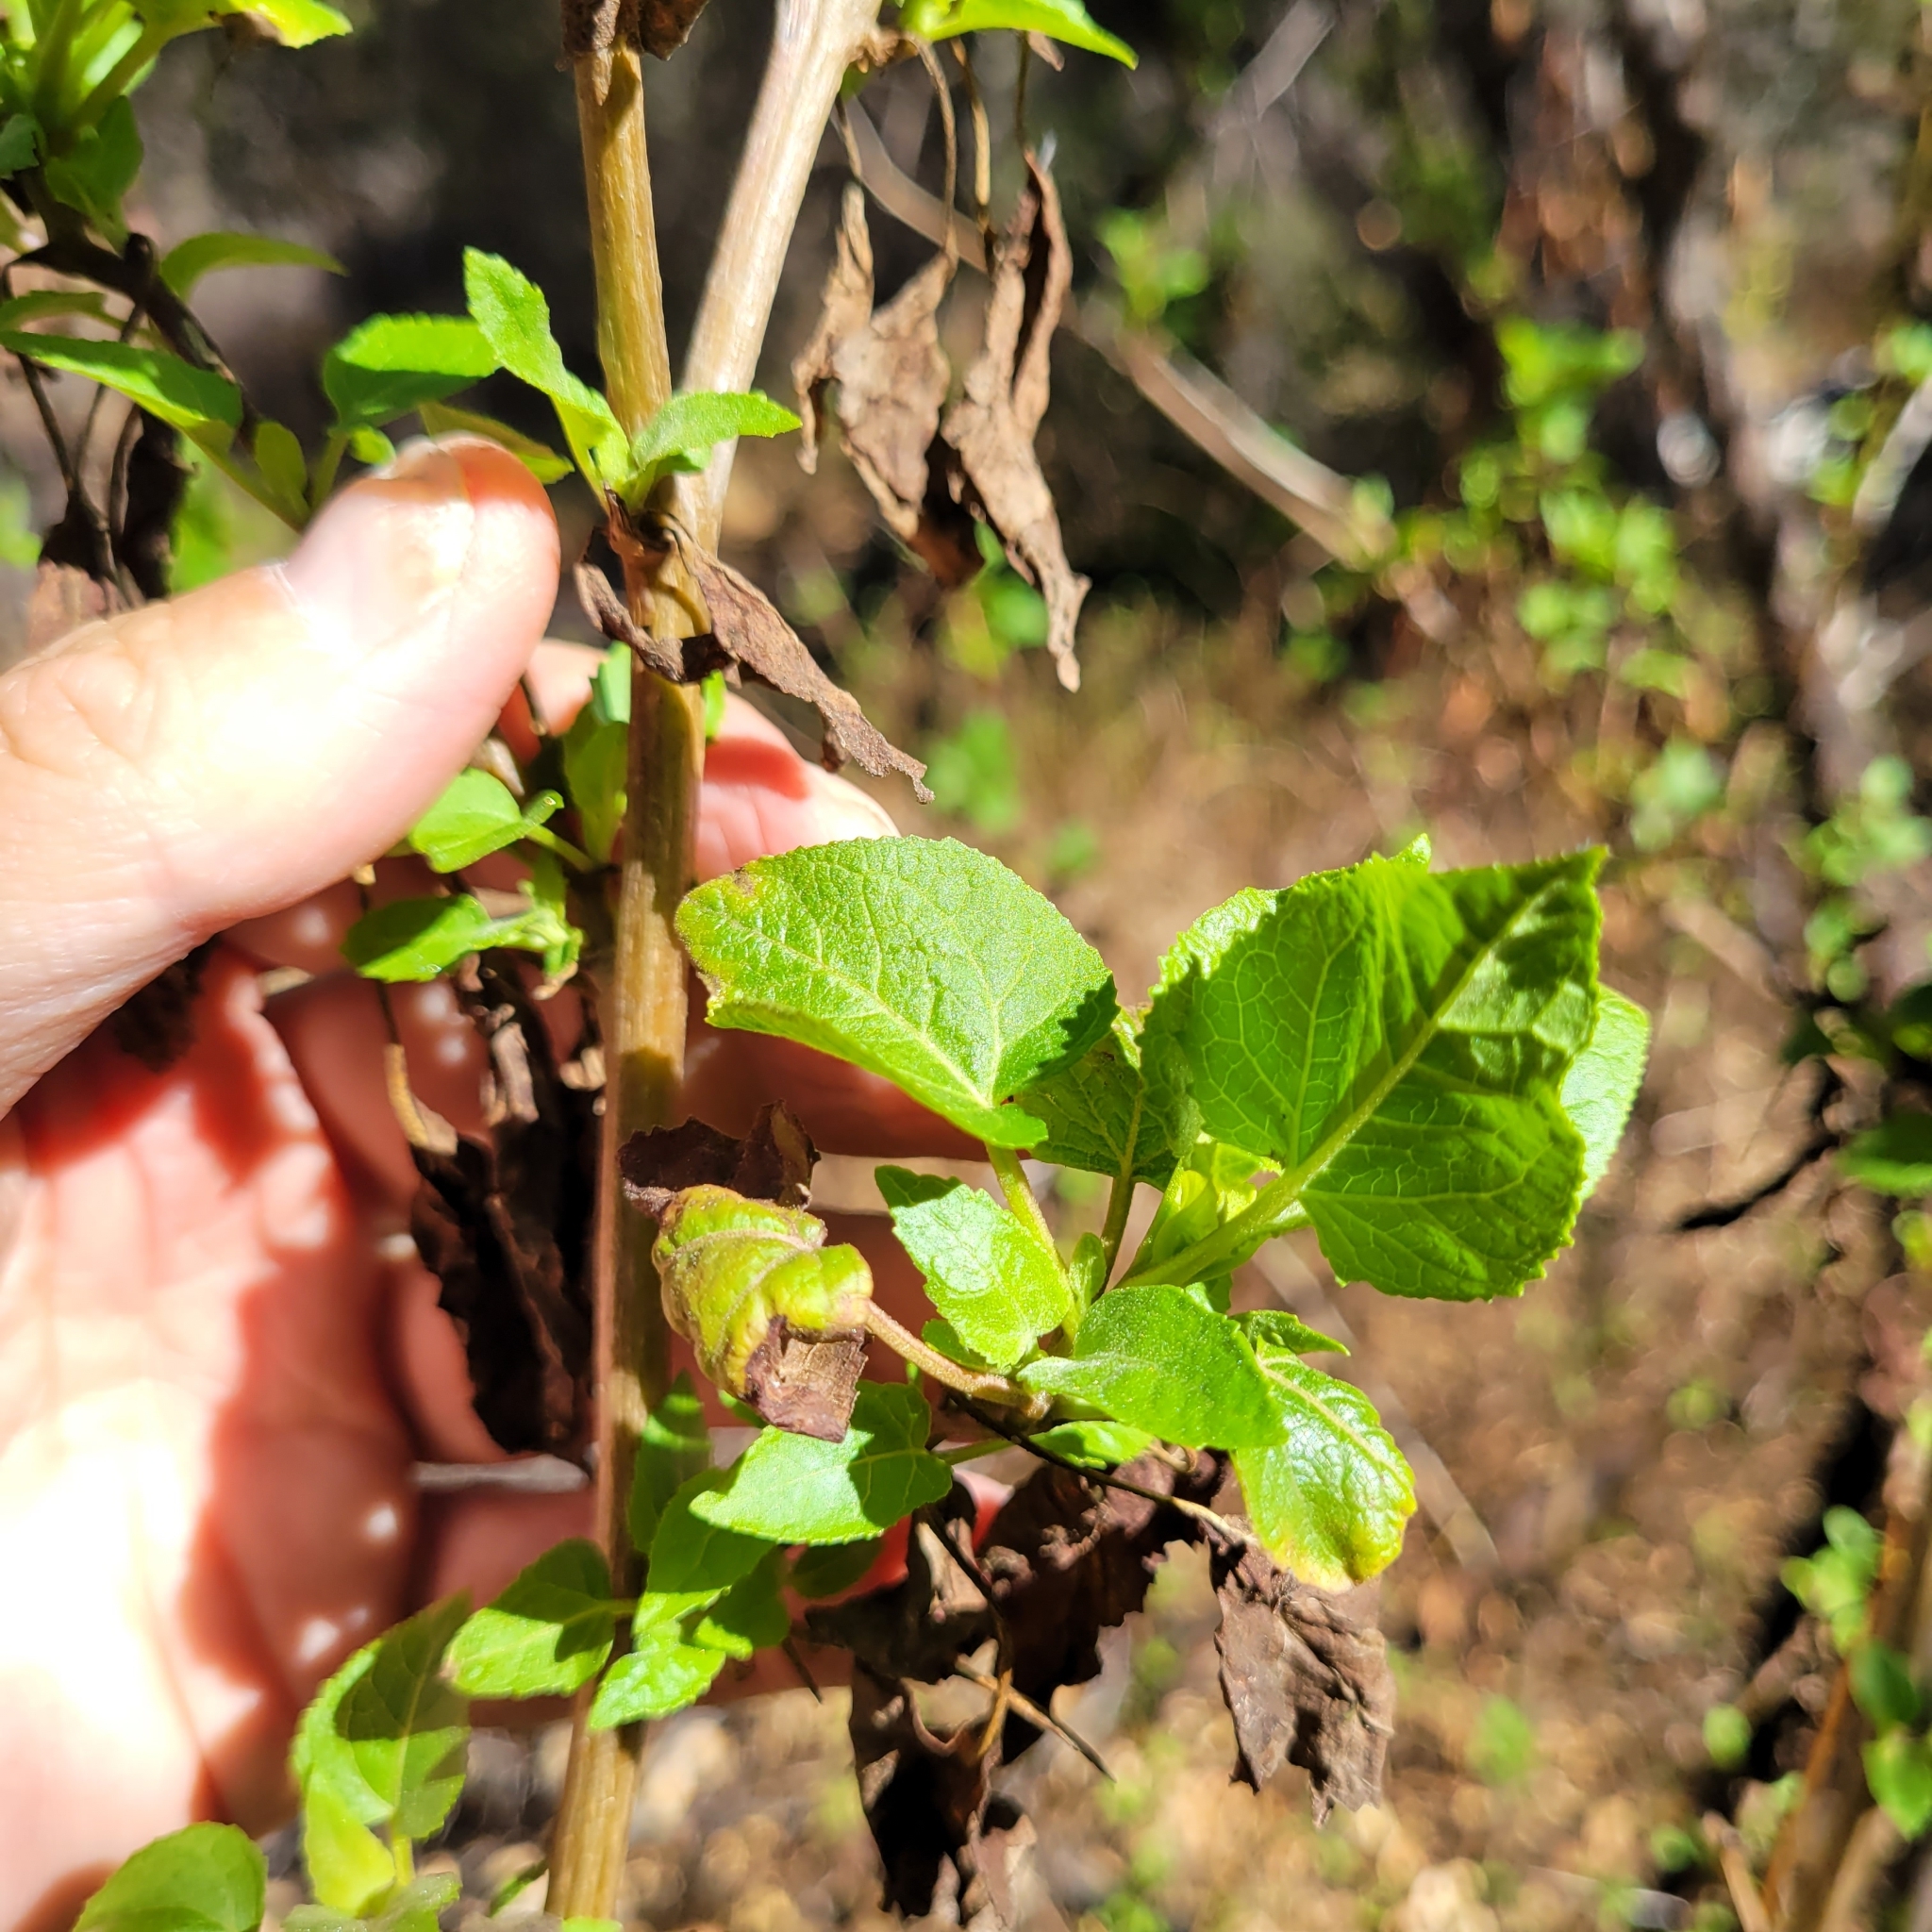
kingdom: Plantae
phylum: Tracheophyta
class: Magnoliopsida
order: Asterales
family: Asteraceae
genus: Venegasia
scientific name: Venegasia carpesioides
